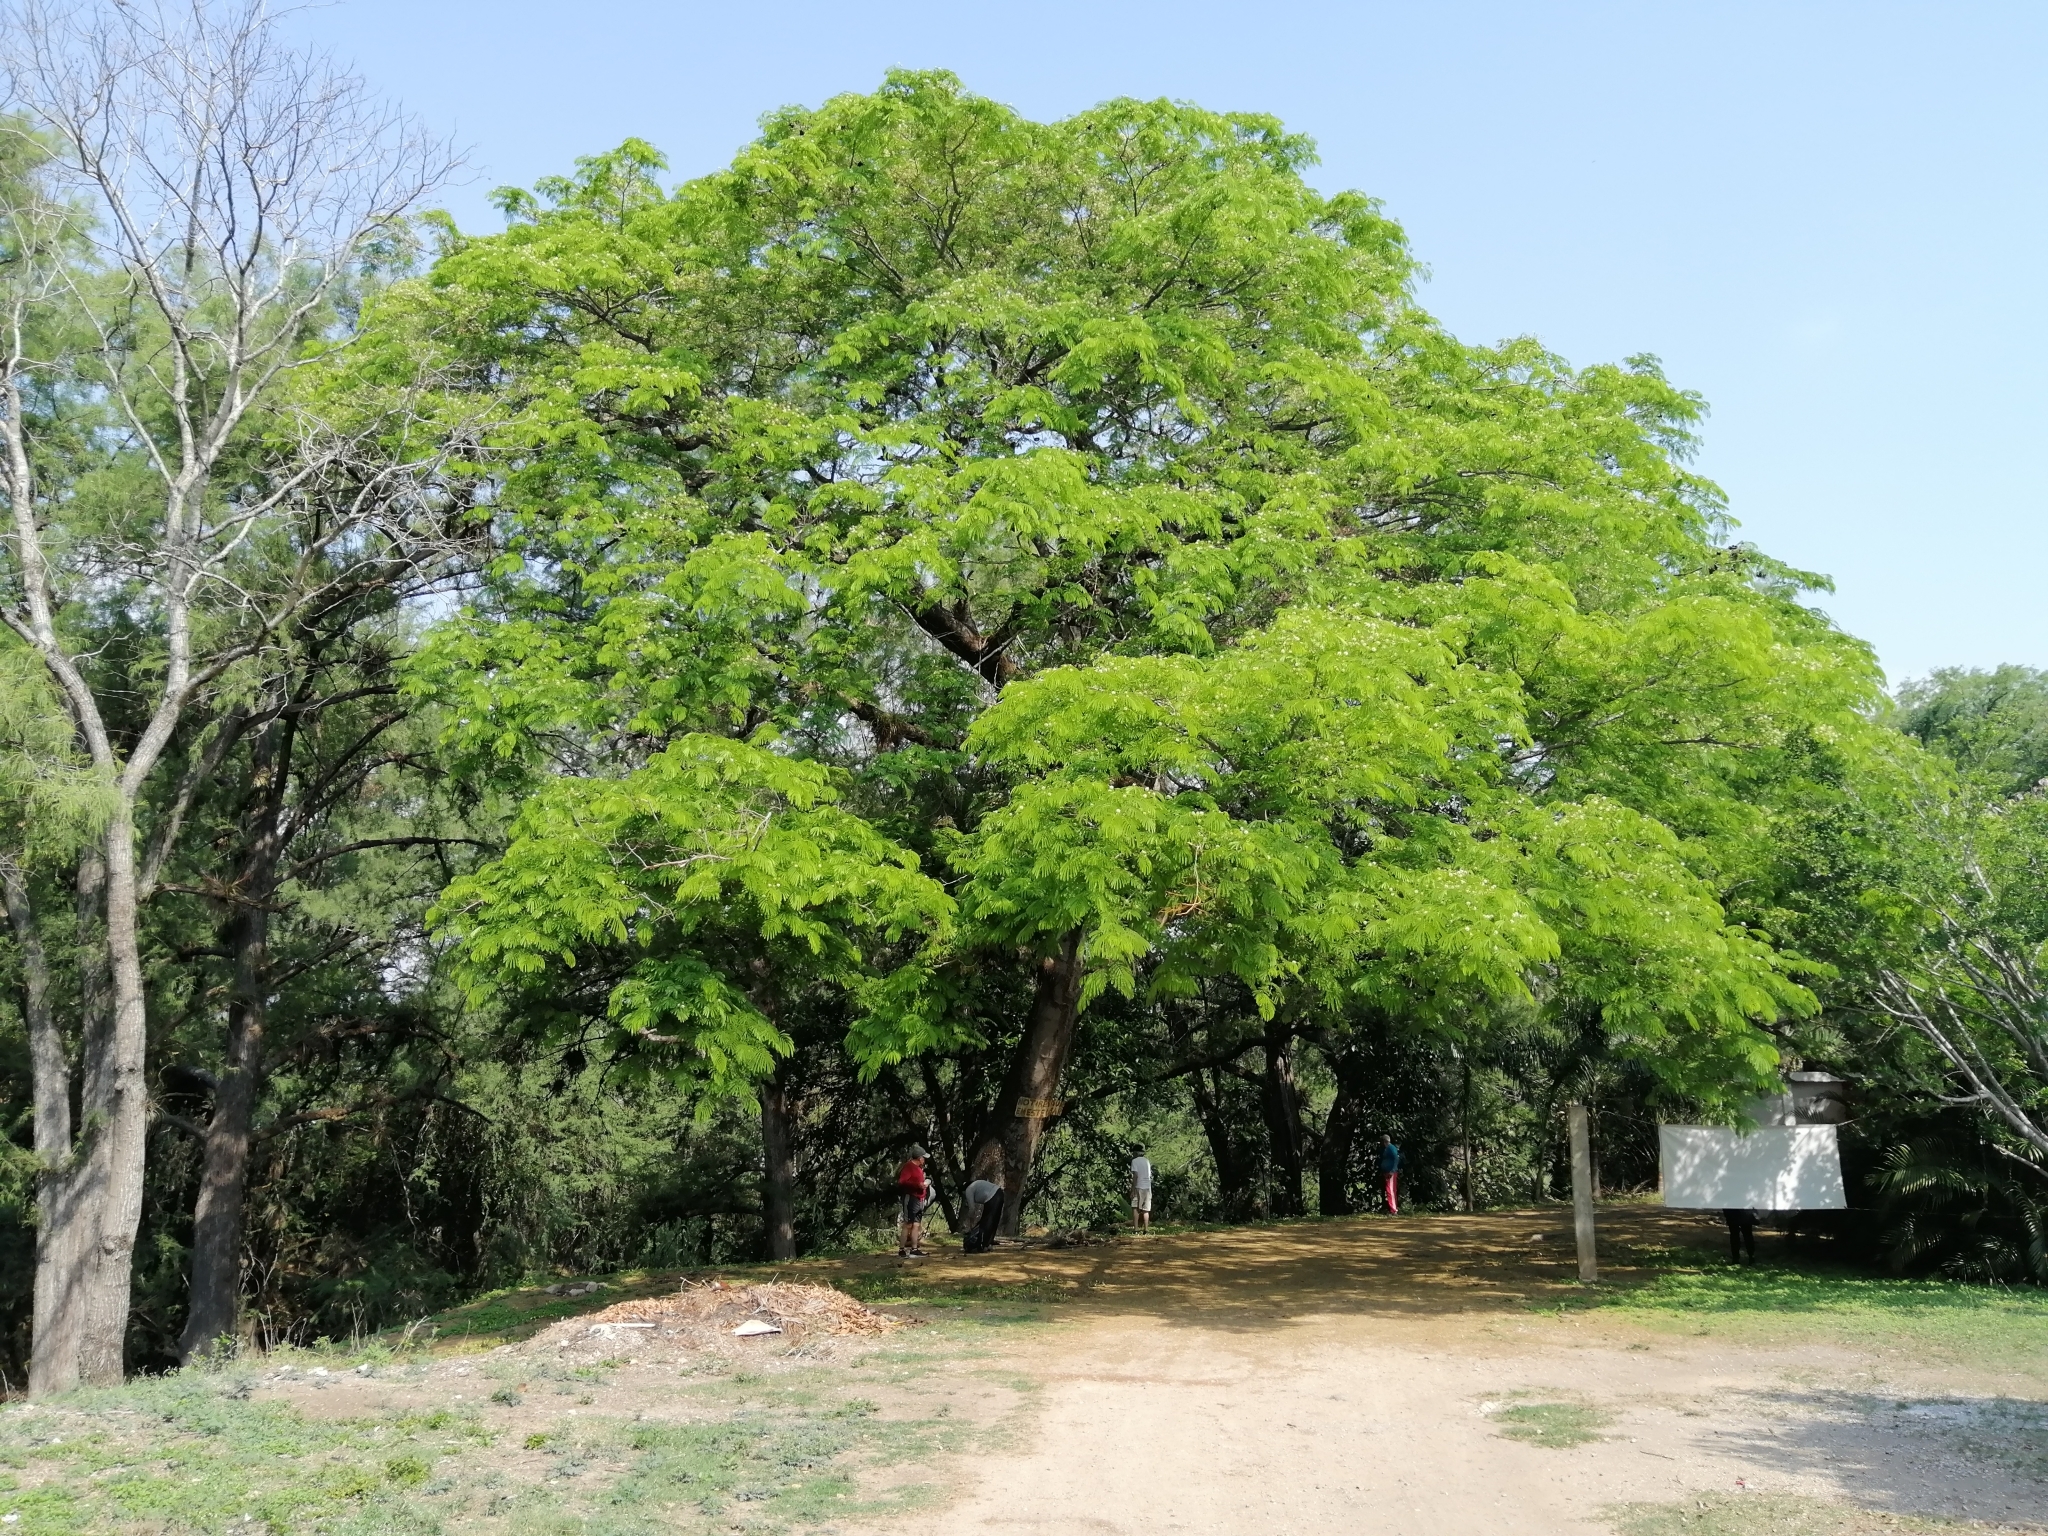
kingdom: Plantae
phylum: Tracheophyta
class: Magnoliopsida
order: Fabales
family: Fabaceae
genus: Enterolobium
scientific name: Enterolobium cyclocarpum
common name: Ear tree
